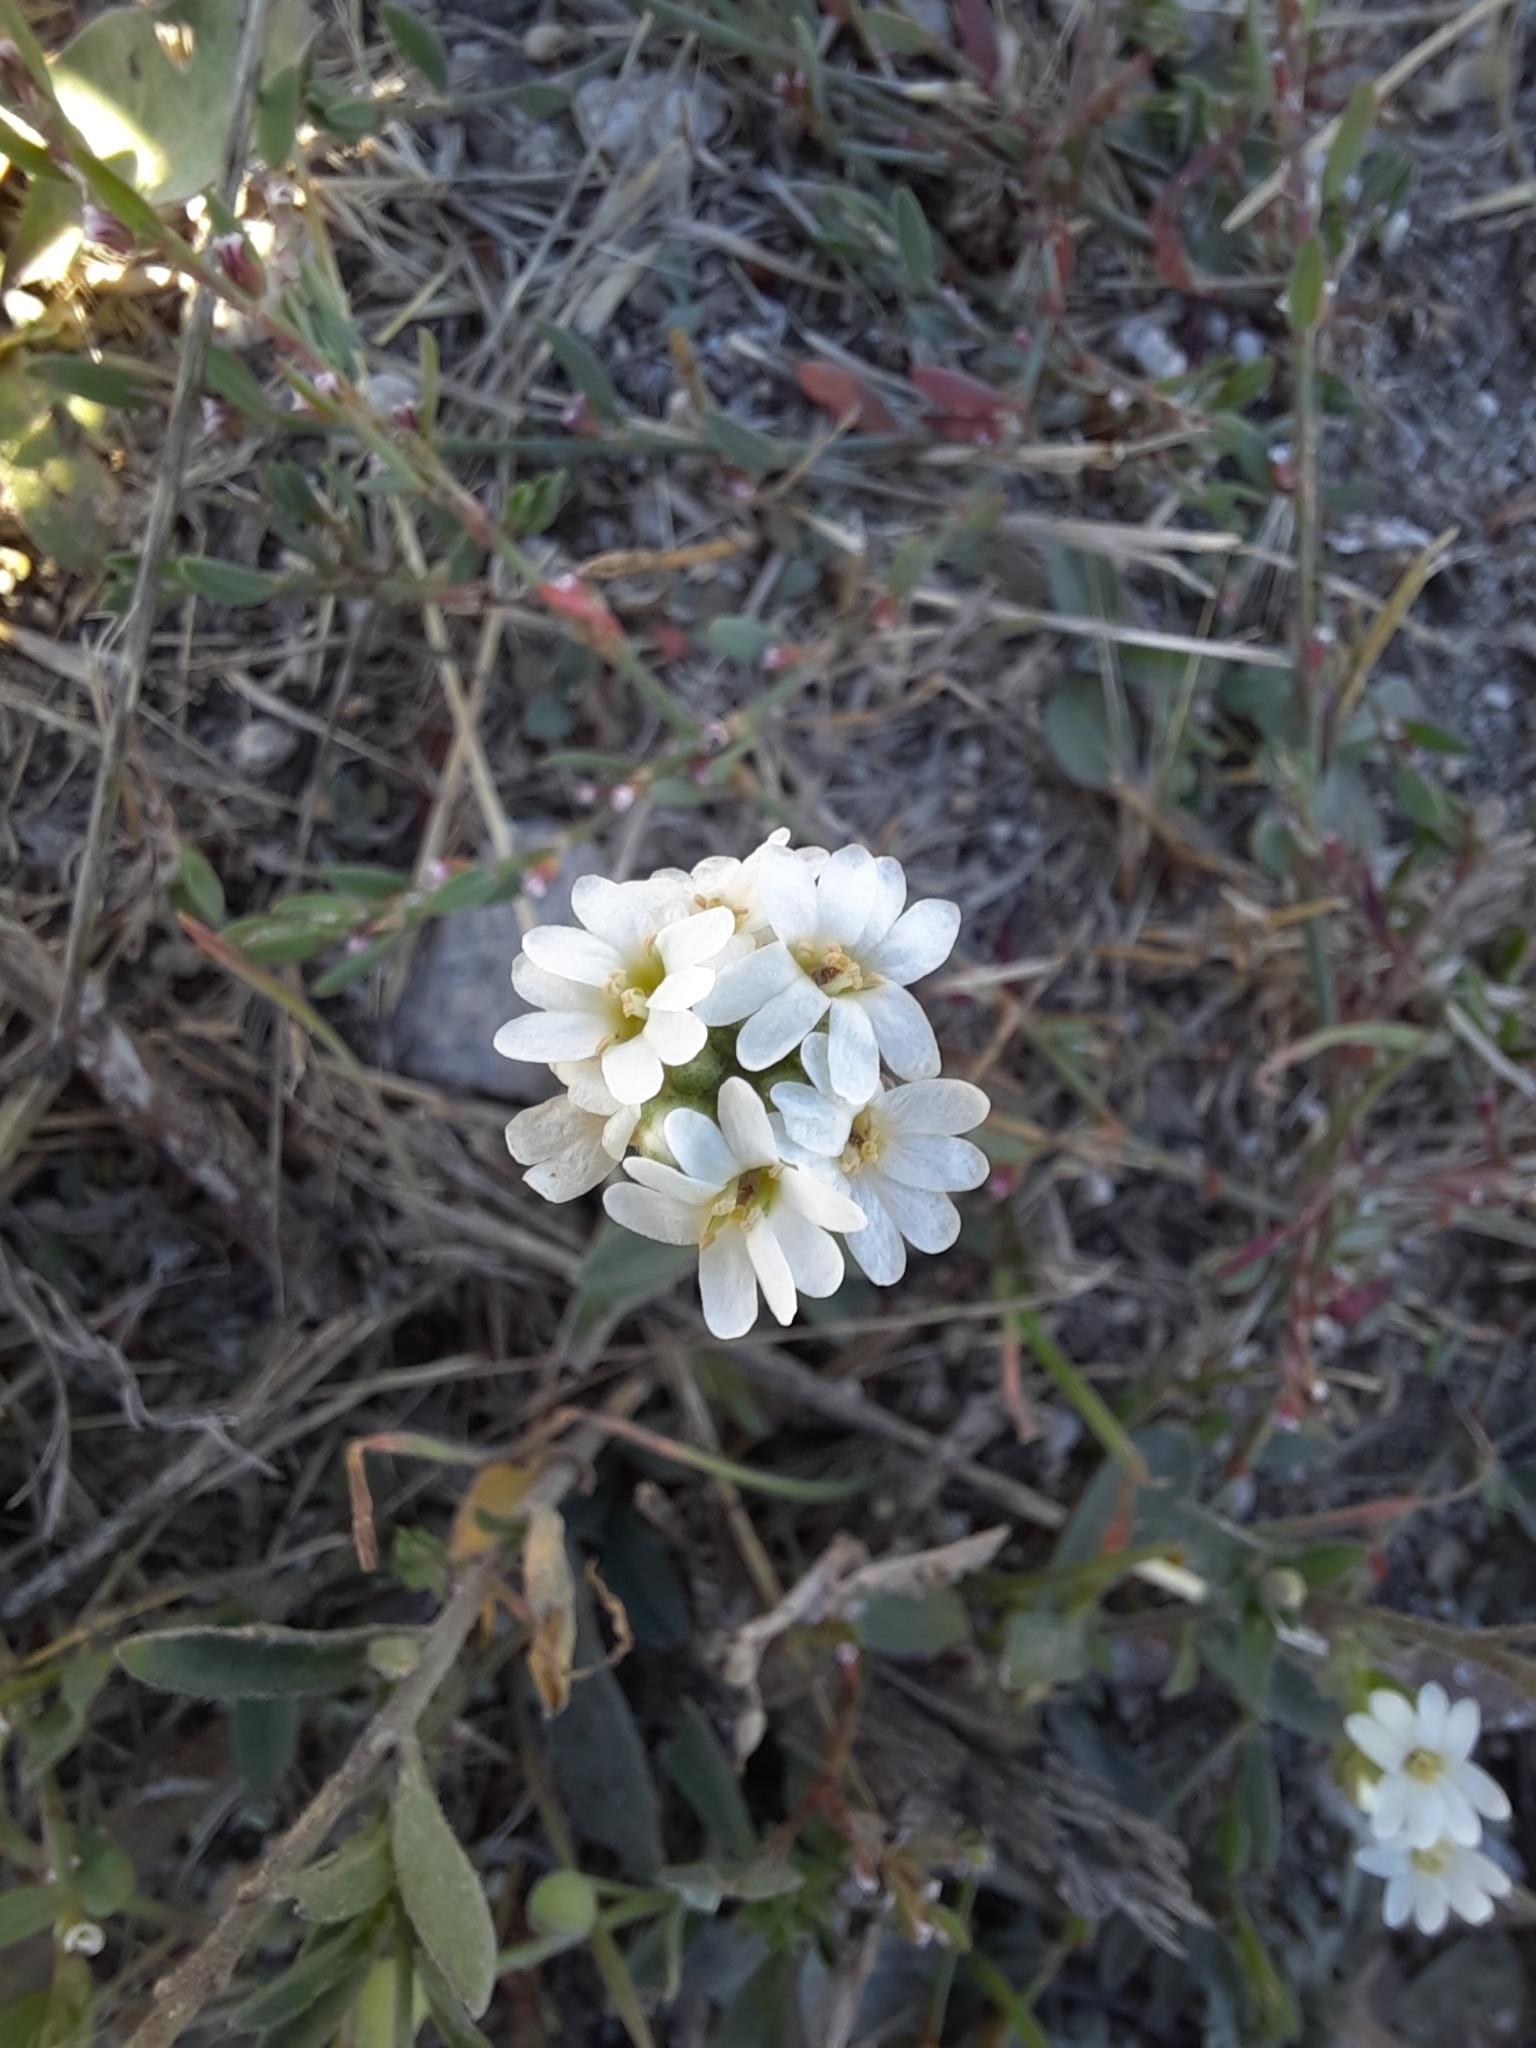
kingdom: Plantae
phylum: Tracheophyta
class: Magnoliopsida
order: Brassicales
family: Brassicaceae
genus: Berteroa
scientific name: Berteroa incana
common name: Hoary alison
